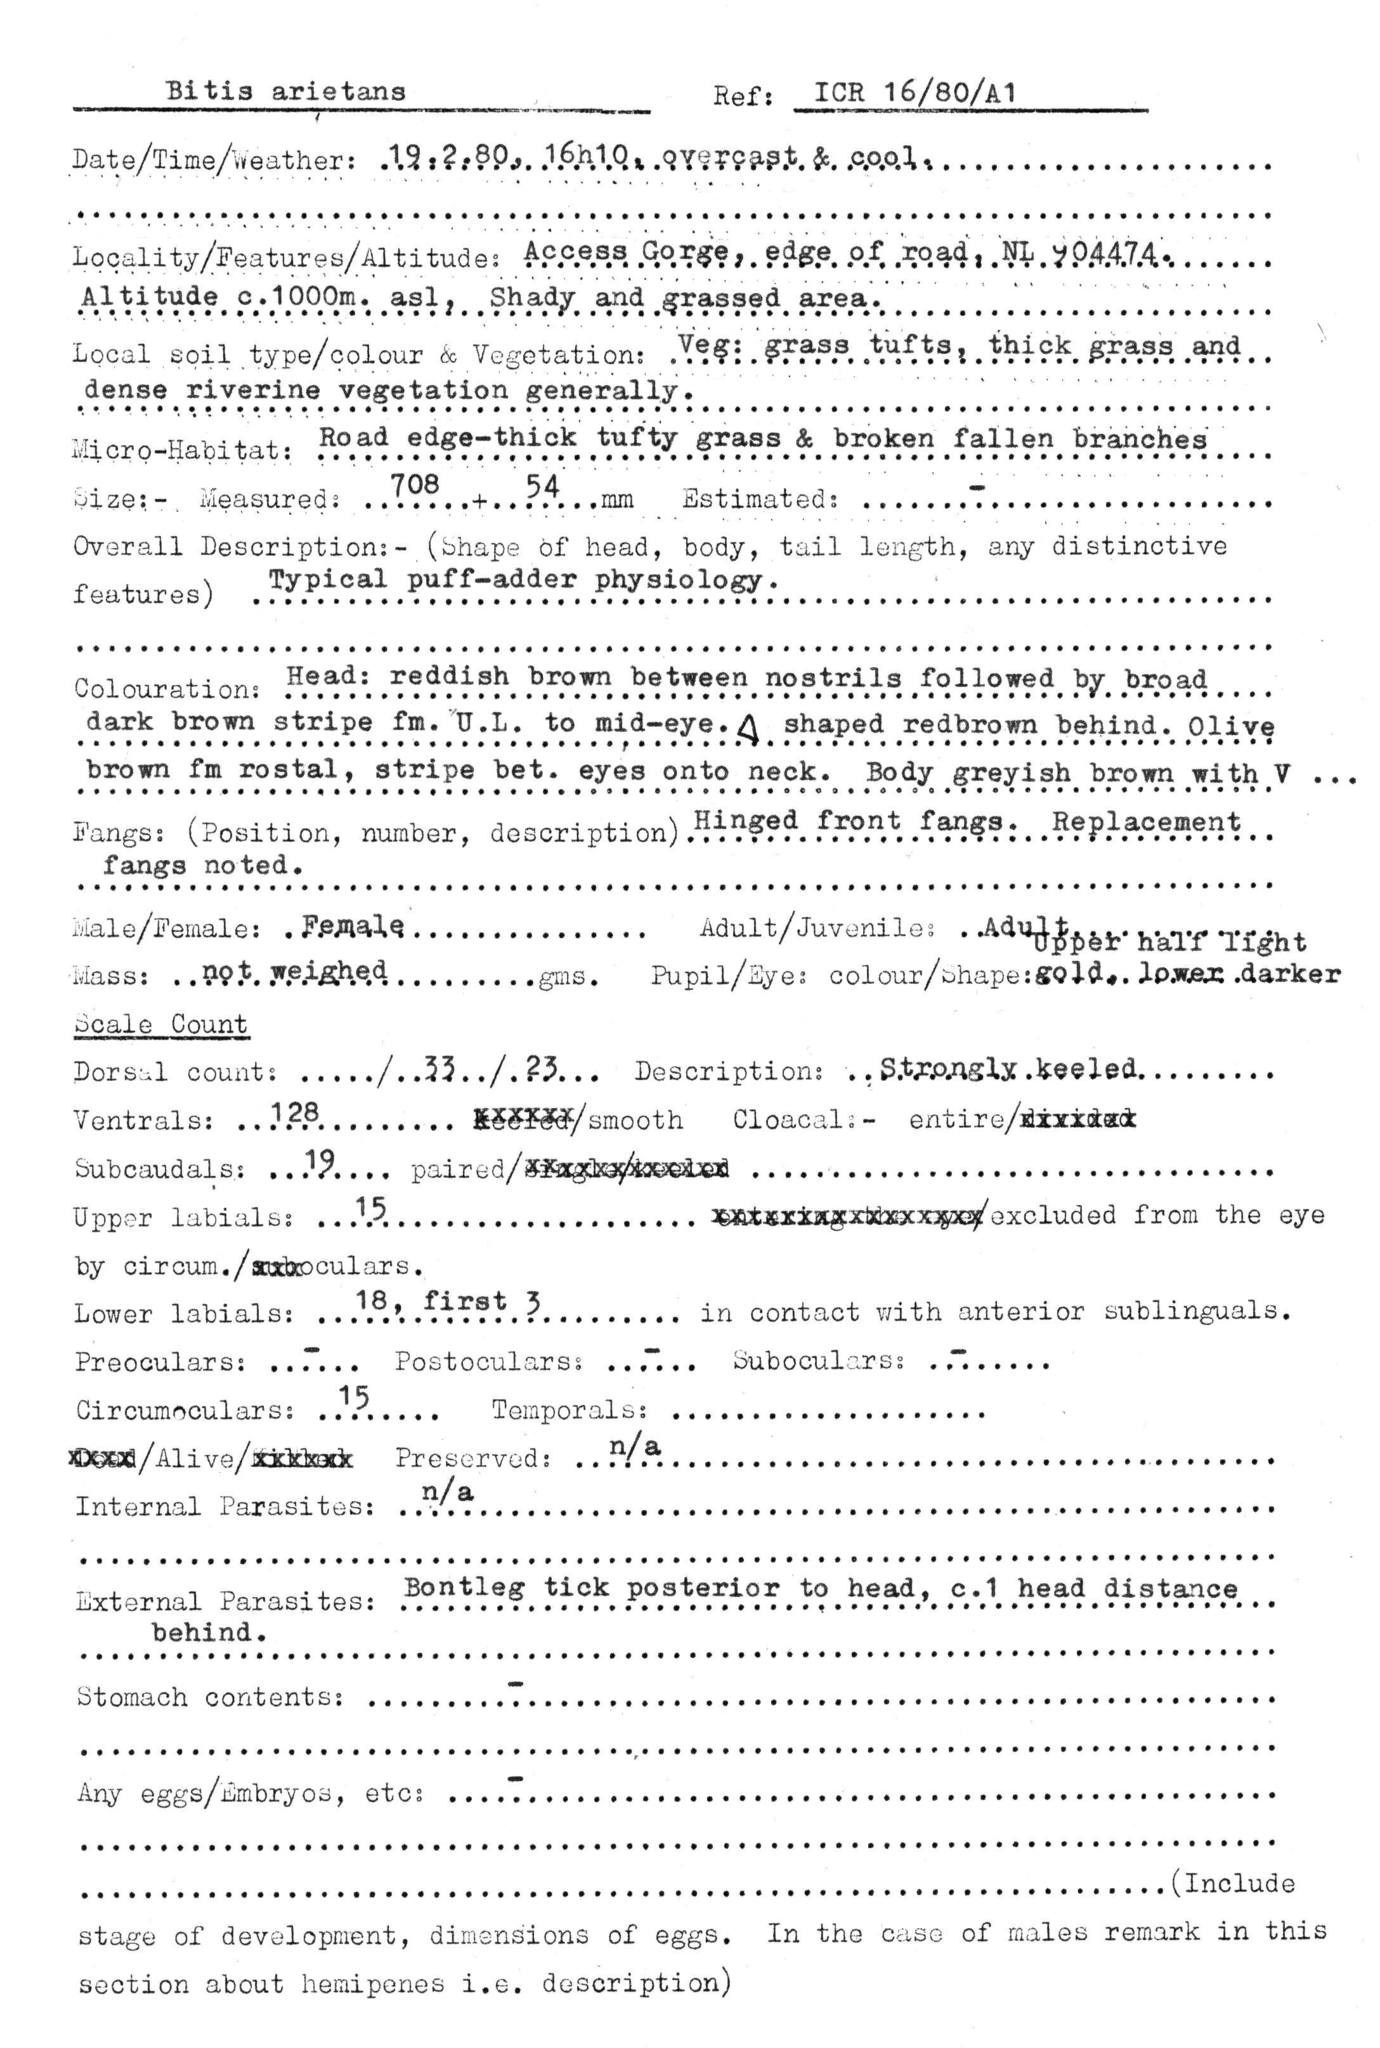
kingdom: Animalia
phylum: Chordata
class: Squamata
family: Viperidae
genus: Bitis
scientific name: Bitis arietans
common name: Puff adder
